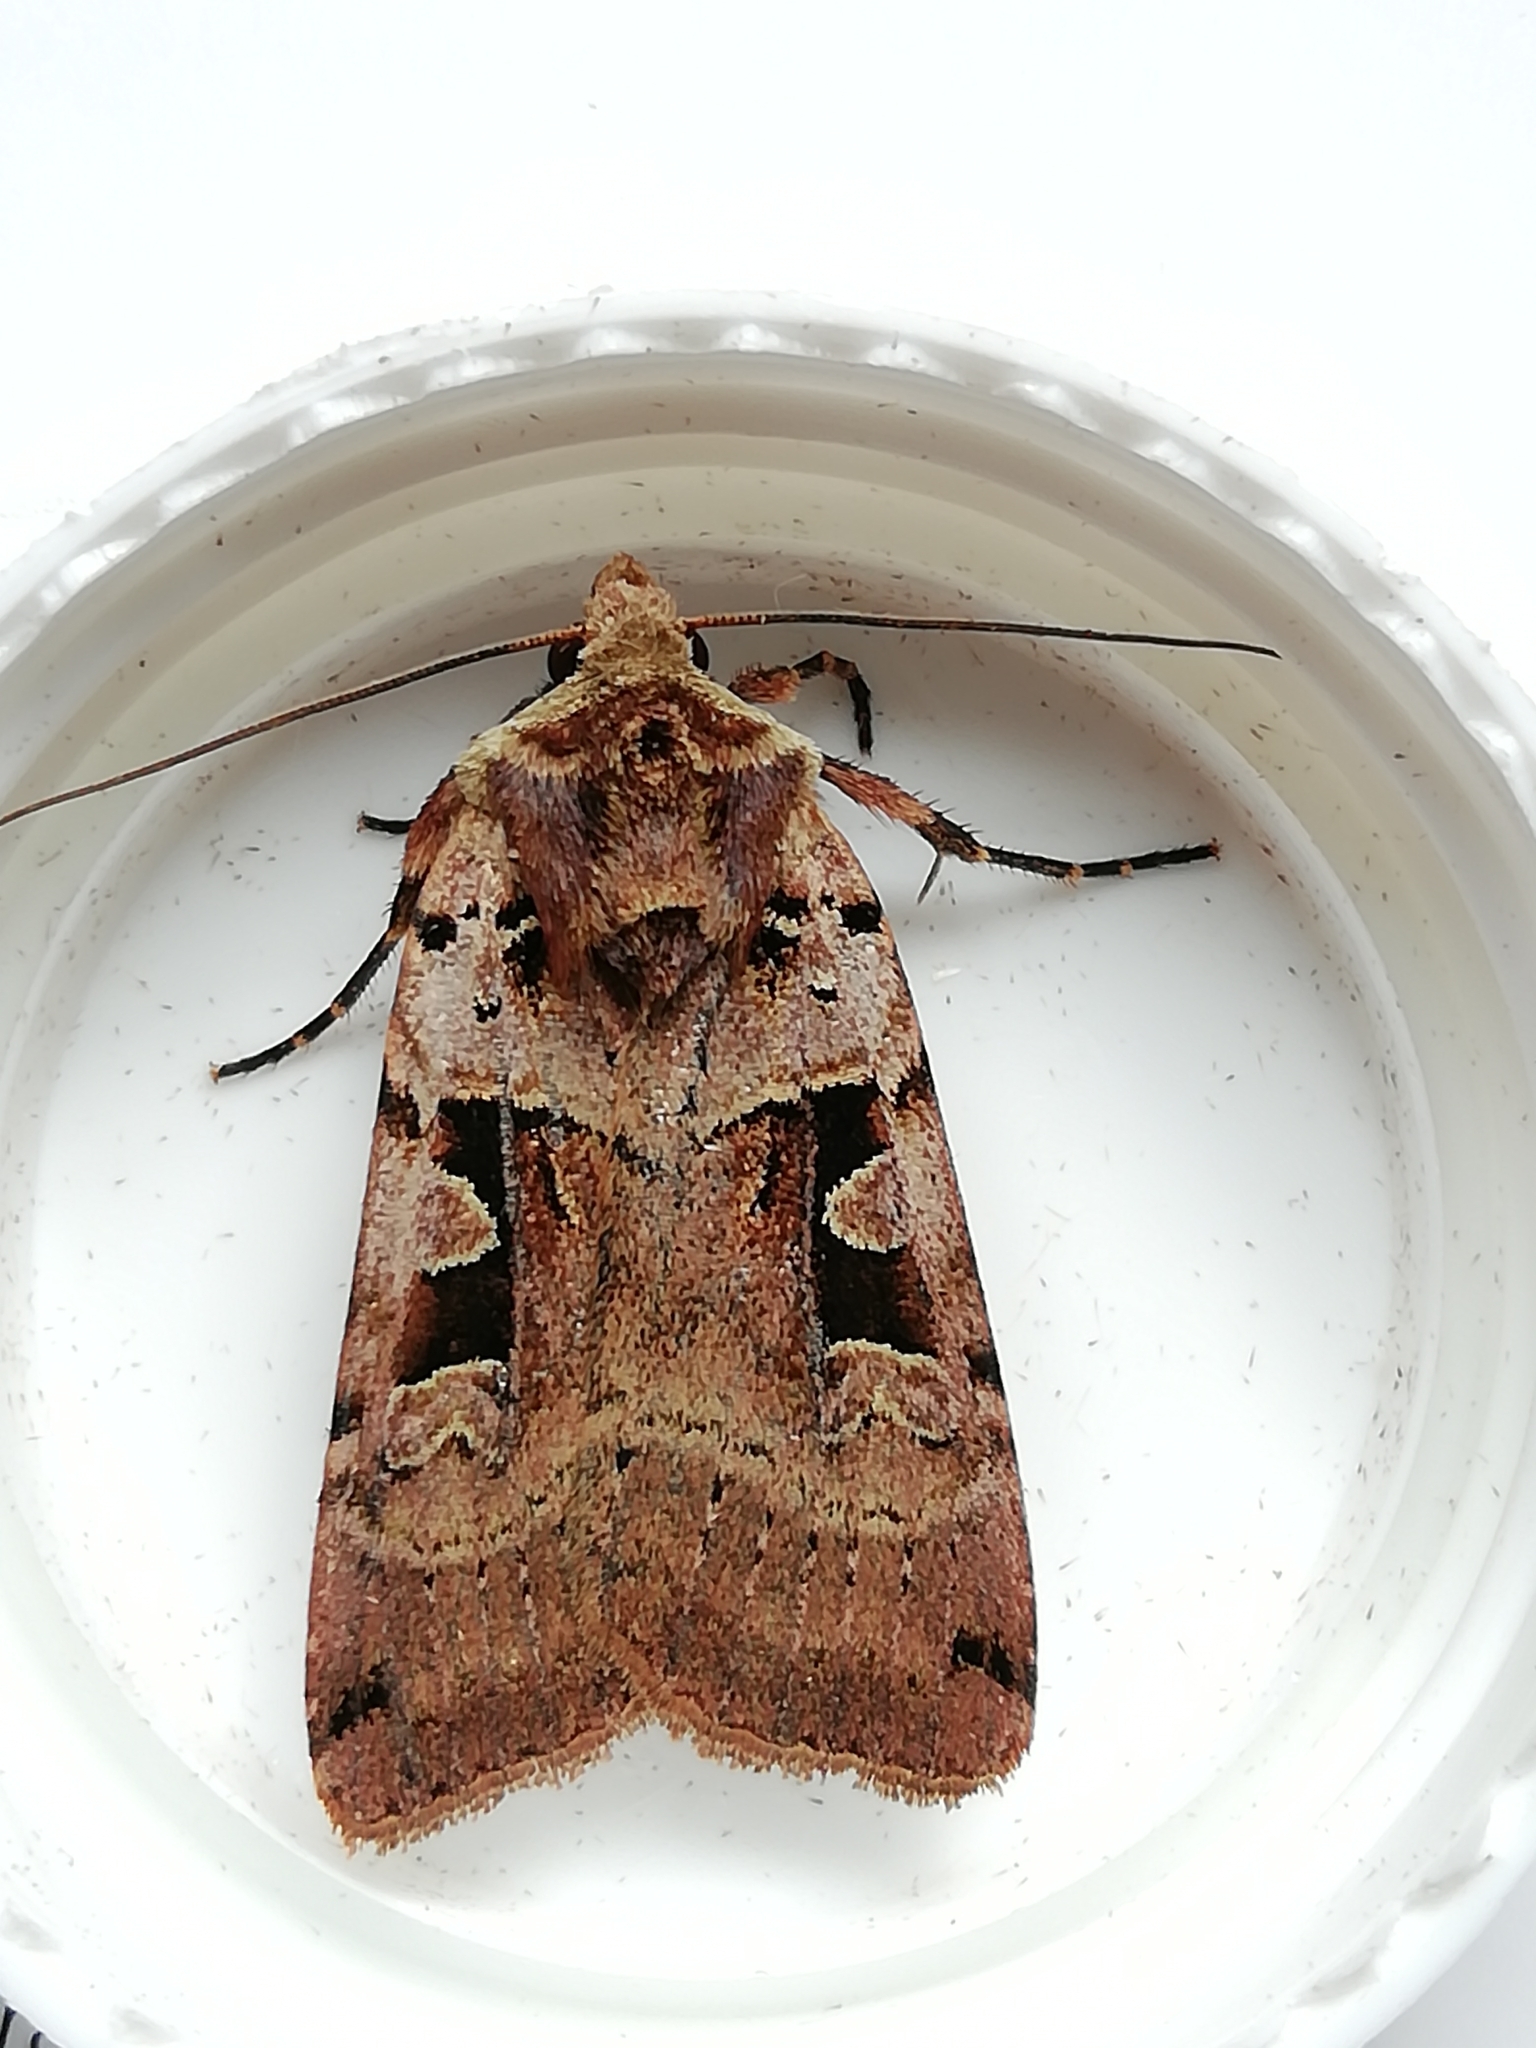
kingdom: Animalia
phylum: Arthropoda
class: Insecta
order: Lepidoptera
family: Noctuidae
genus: Xestia
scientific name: Xestia triangulum
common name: Double square-spot
